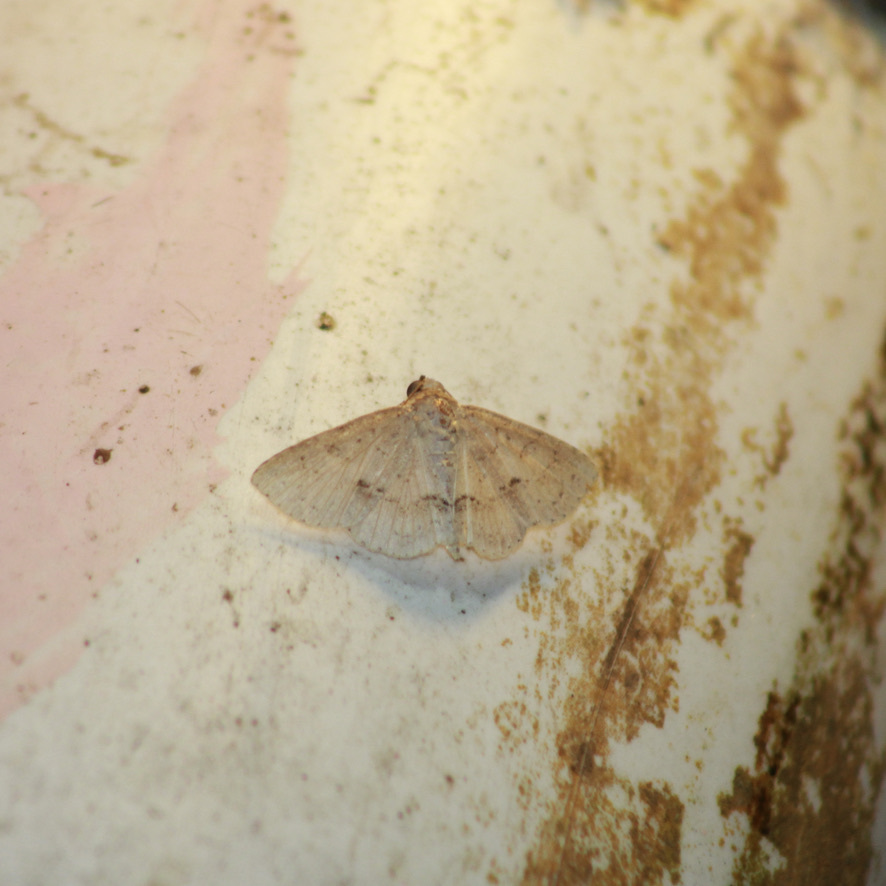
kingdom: Animalia
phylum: Arthropoda
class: Insecta
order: Lepidoptera
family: Erebidae
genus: Antiblemma
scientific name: Antiblemma melanoides
